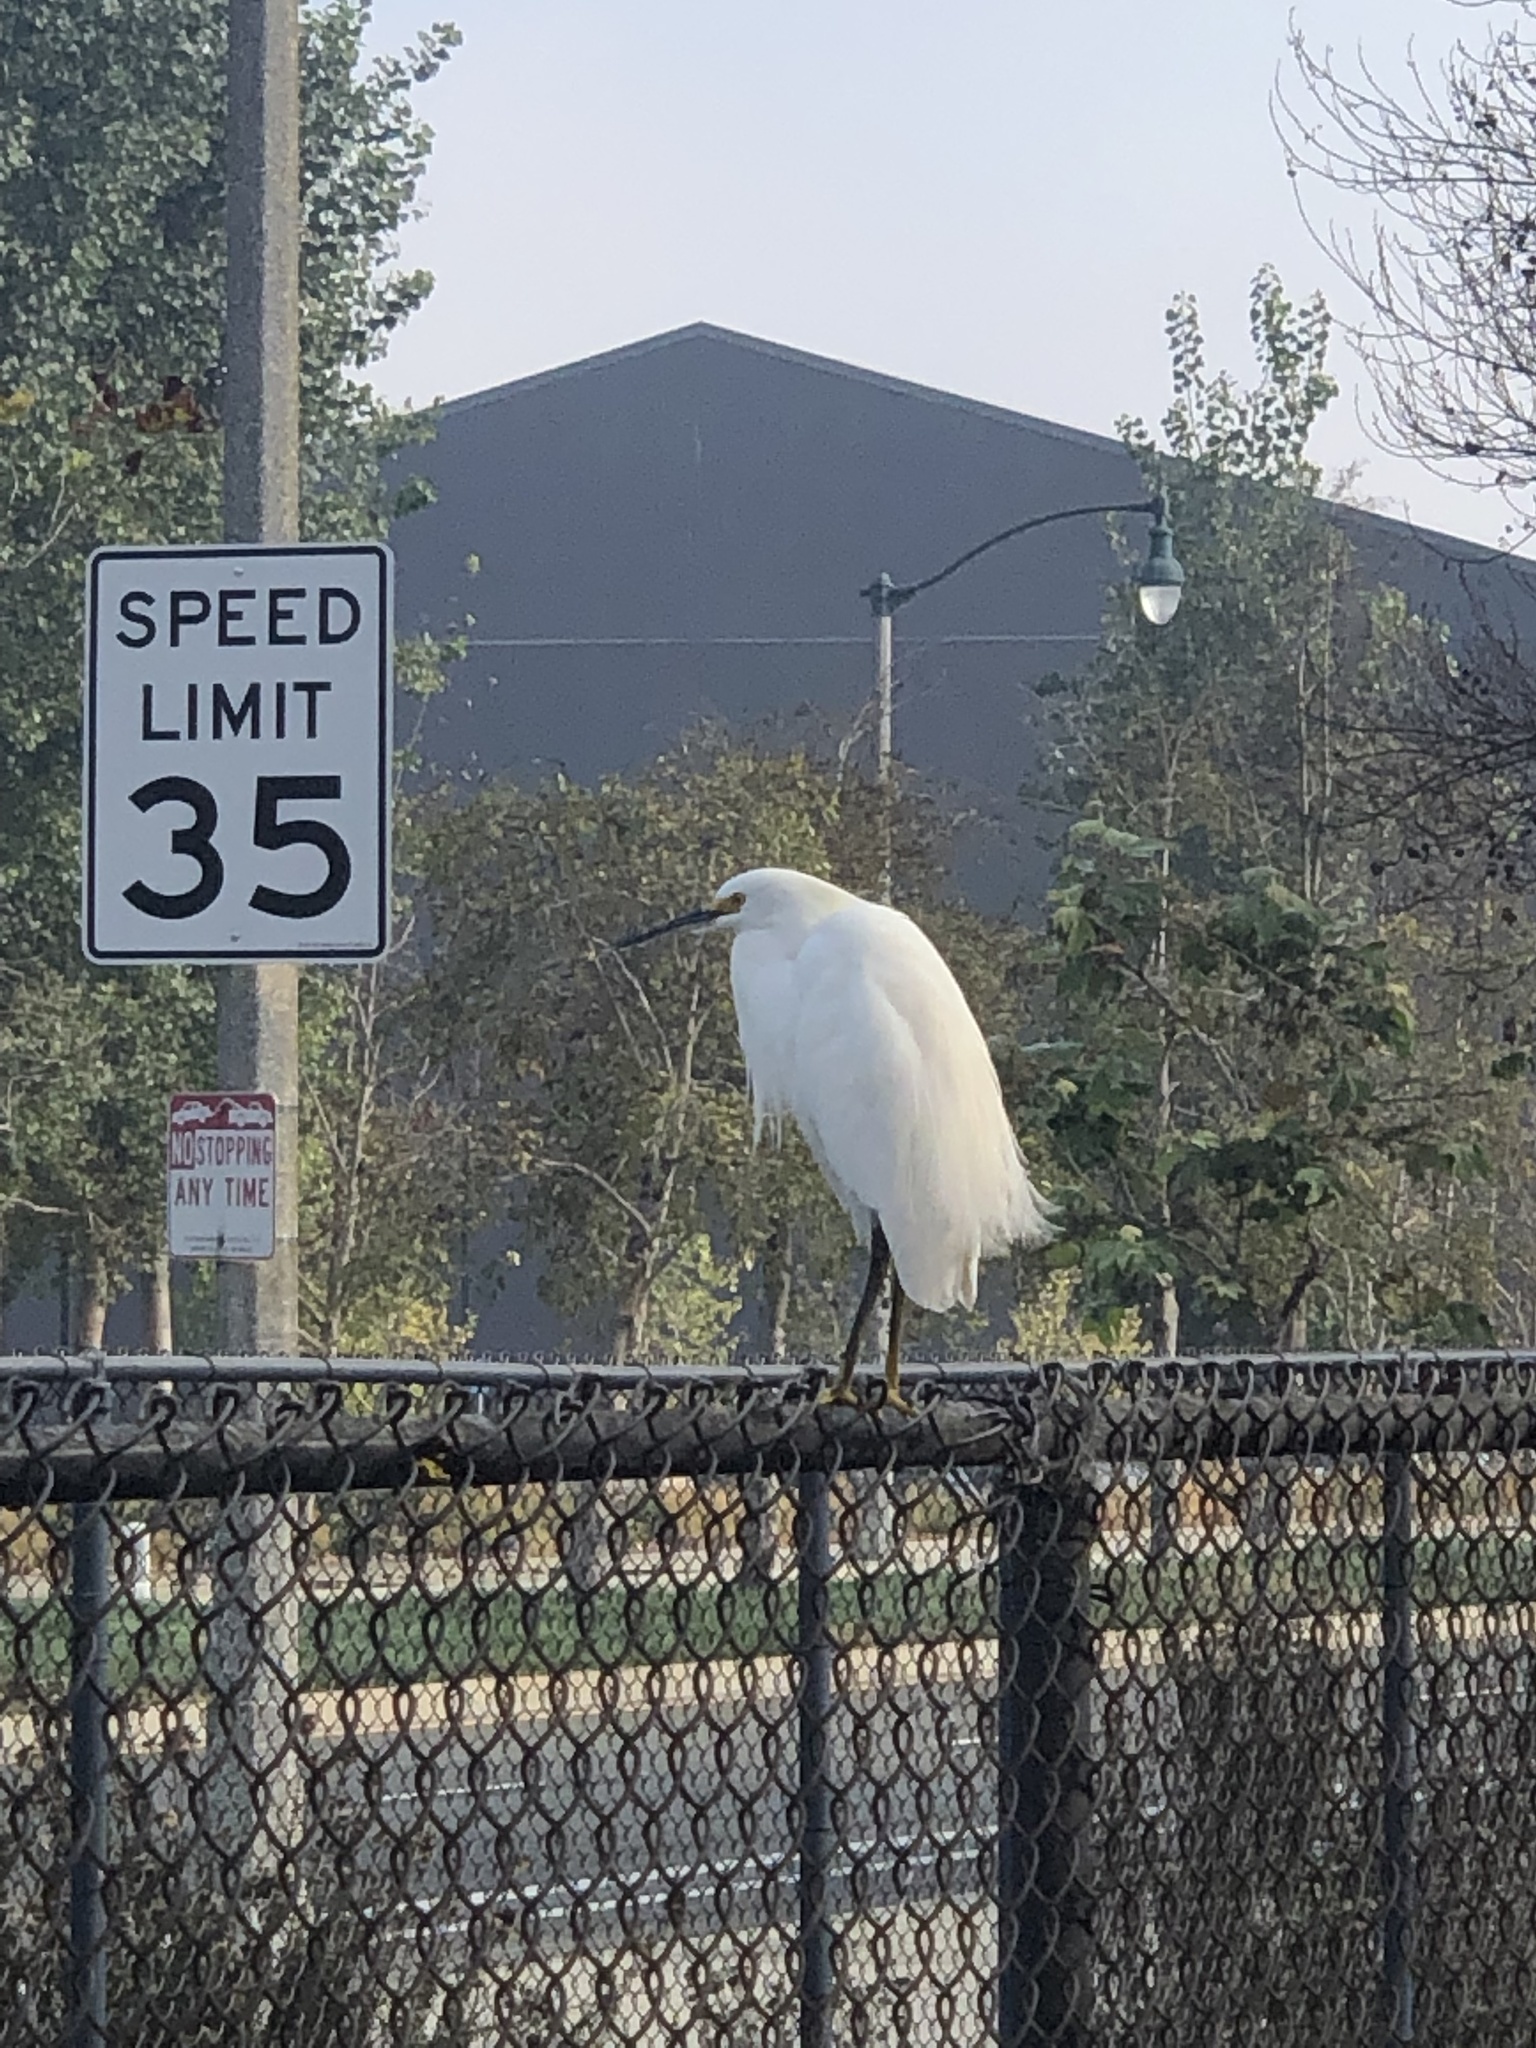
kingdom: Animalia
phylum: Chordata
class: Aves
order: Pelecaniformes
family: Ardeidae
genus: Egretta
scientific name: Egretta thula
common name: Snowy egret
